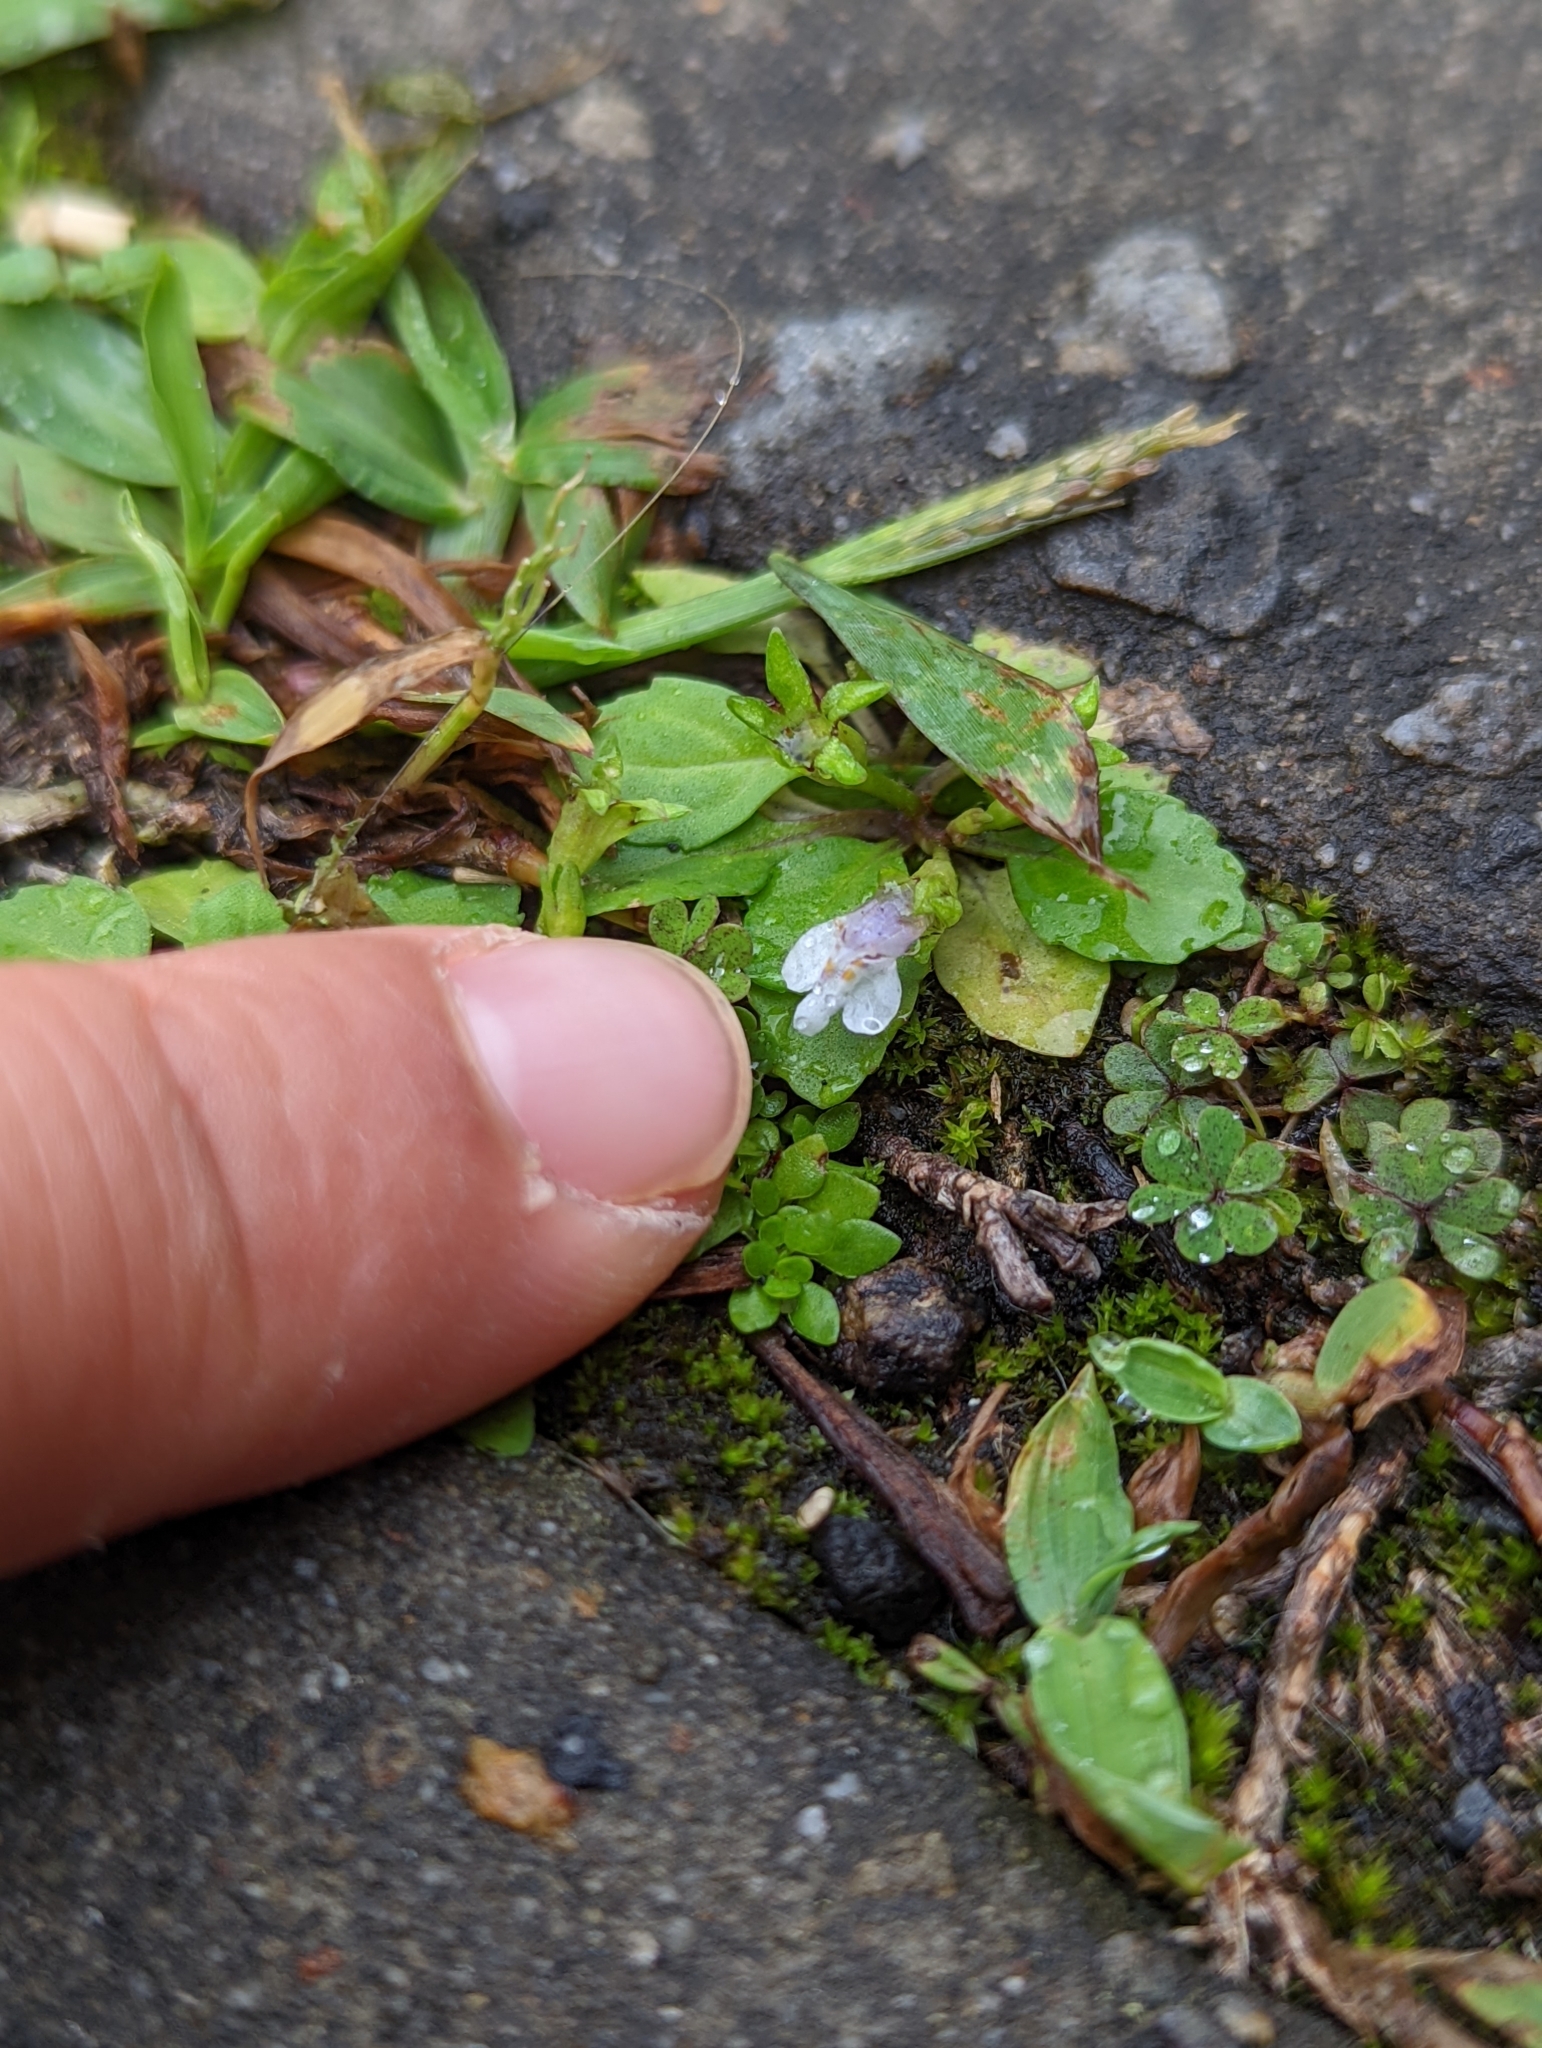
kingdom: Plantae
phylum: Tracheophyta
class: Magnoliopsida
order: Lamiales
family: Mazaceae
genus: Mazus
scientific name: Mazus pumilus
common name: Japanese mazus
